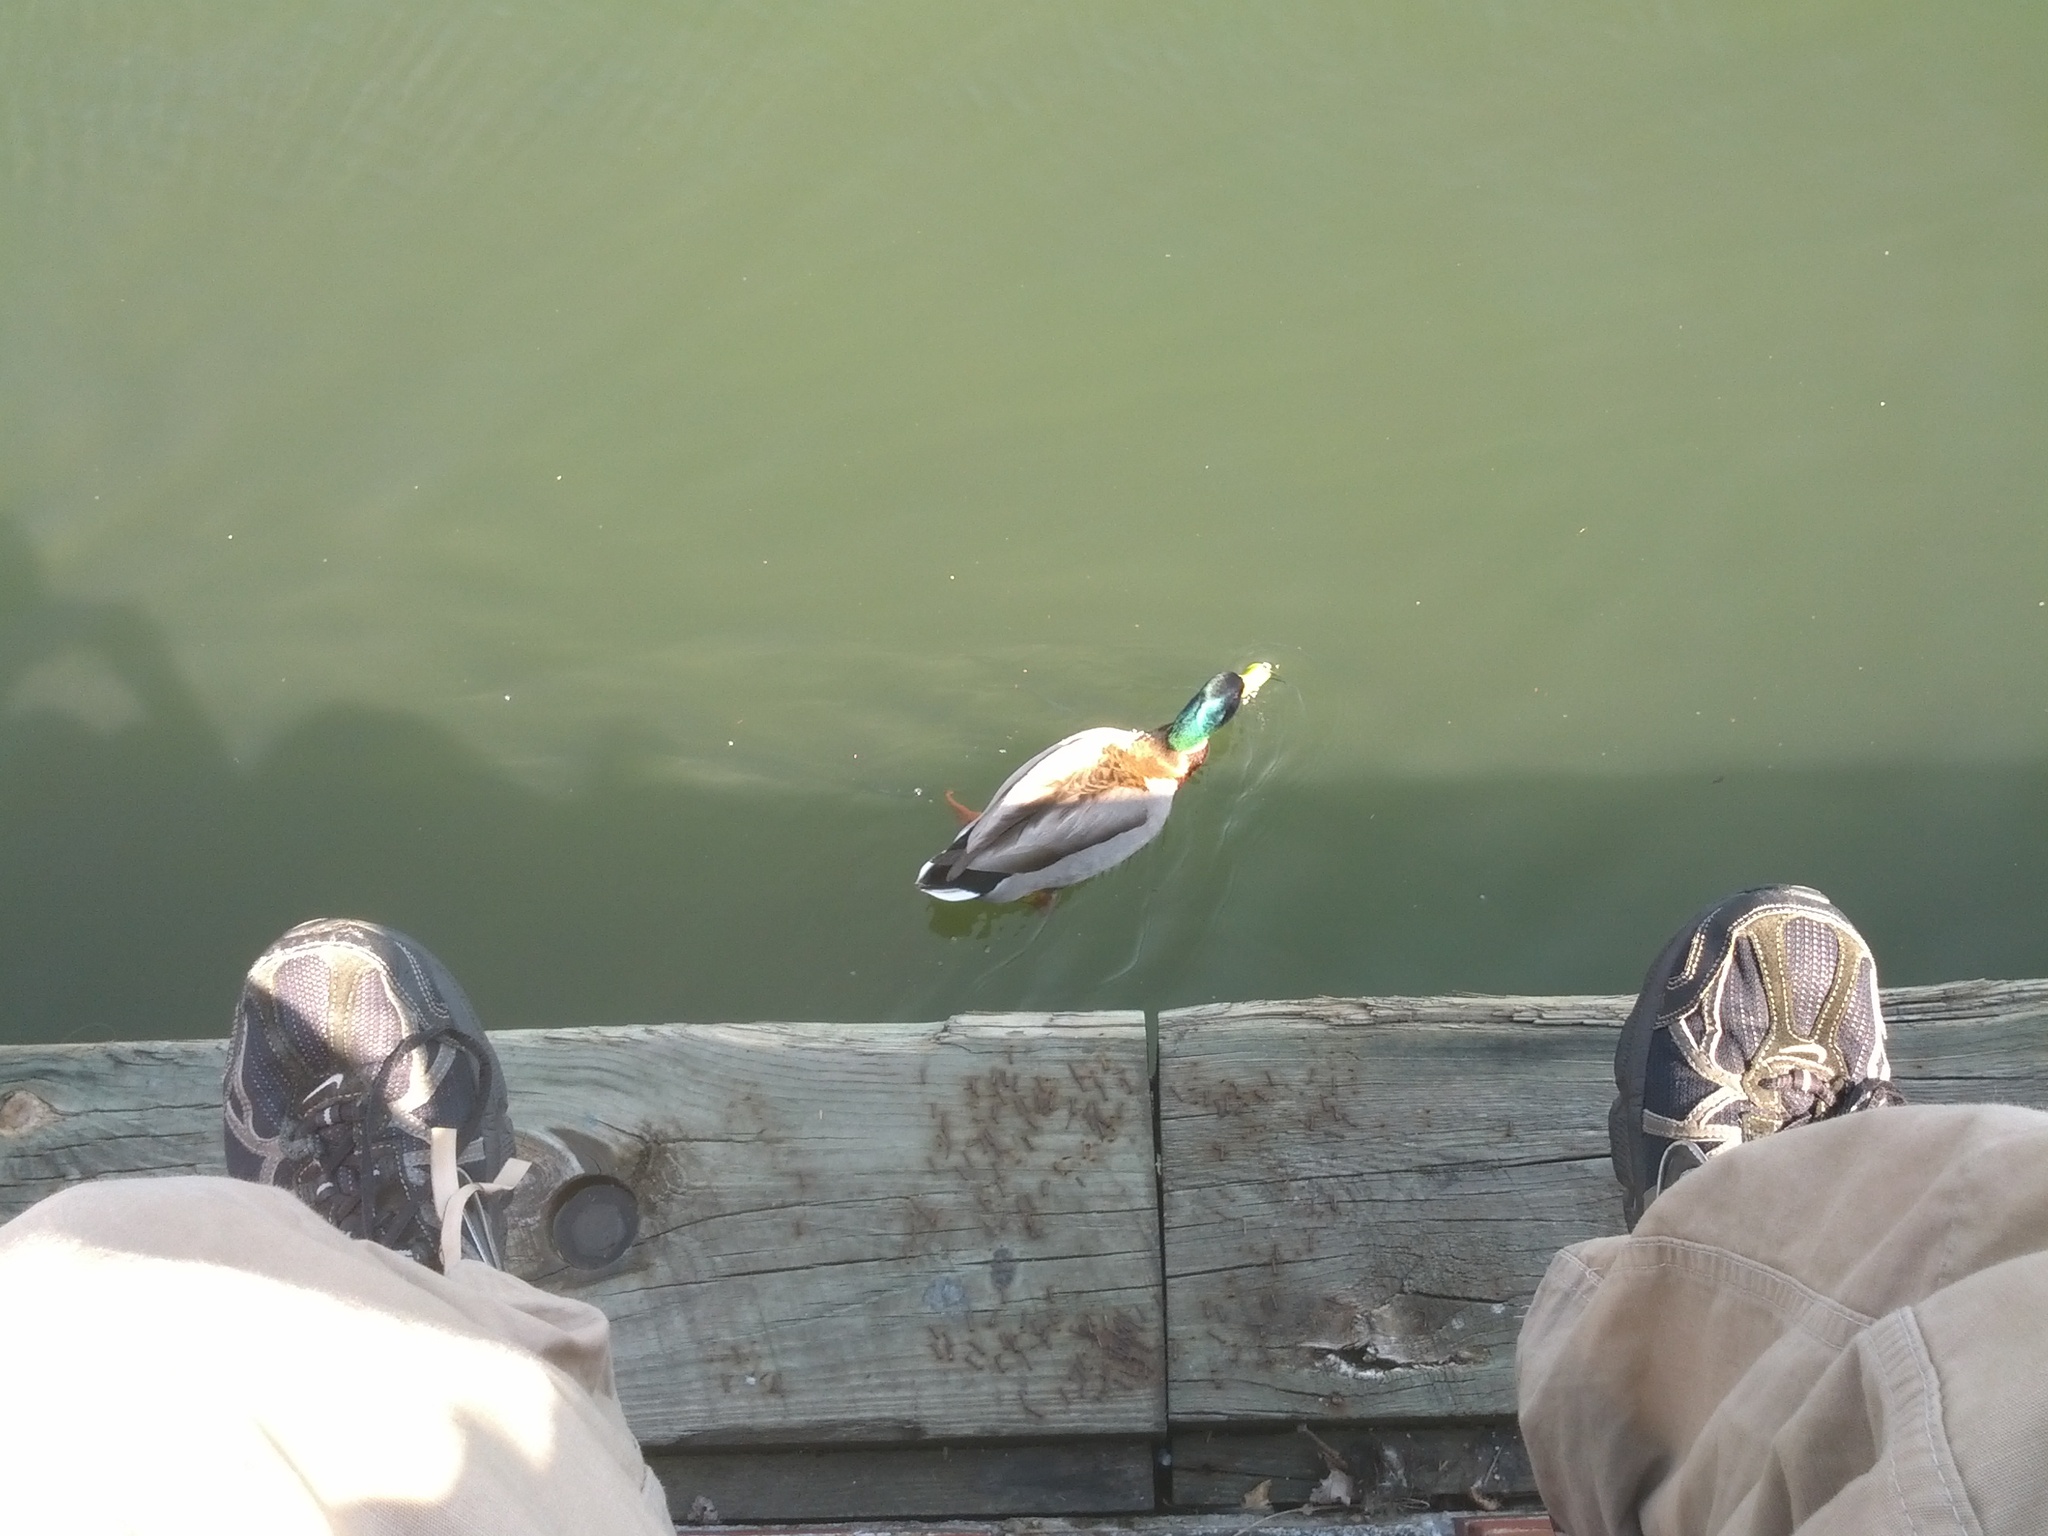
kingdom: Animalia
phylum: Chordata
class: Aves
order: Anseriformes
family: Anatidae
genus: Anas
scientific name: Anas platyrhynchos
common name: Mallard
